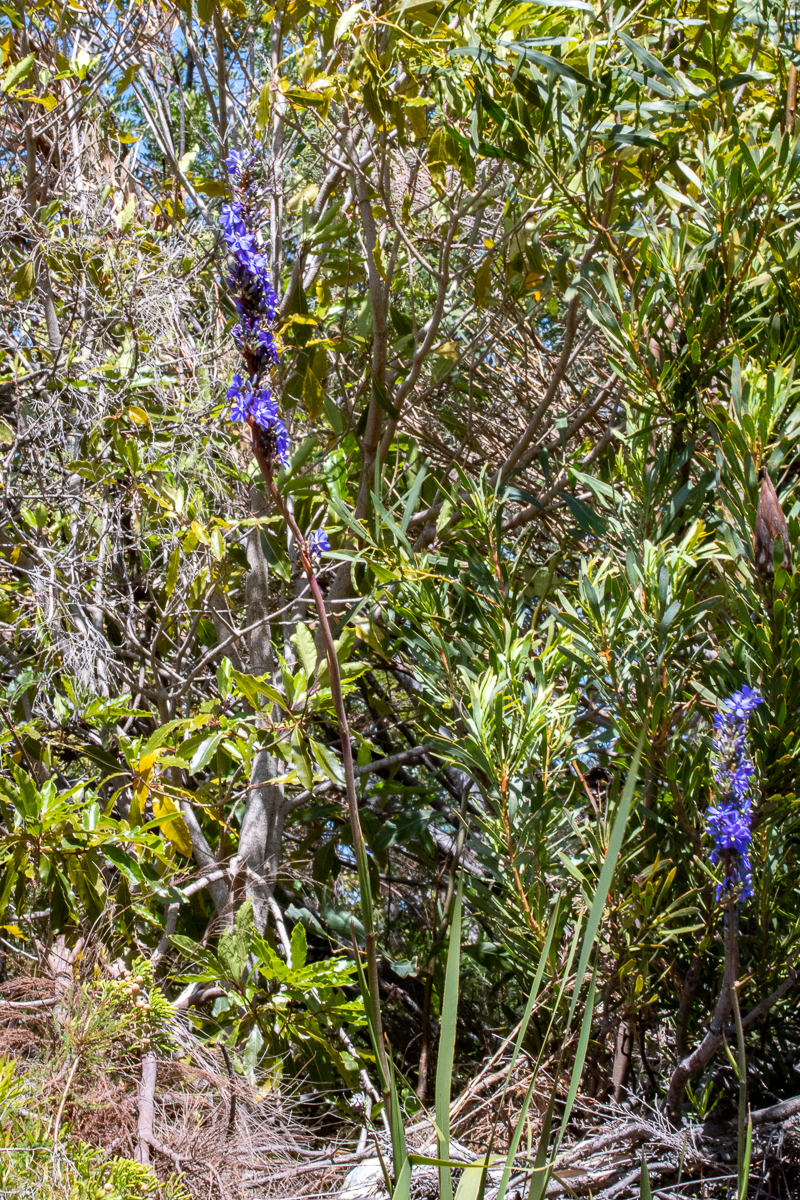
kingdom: Plantae
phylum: Tracheophyta
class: Liliopsida
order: Asparagales
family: Iridaceae
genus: Aristea
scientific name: Aristea capitata
